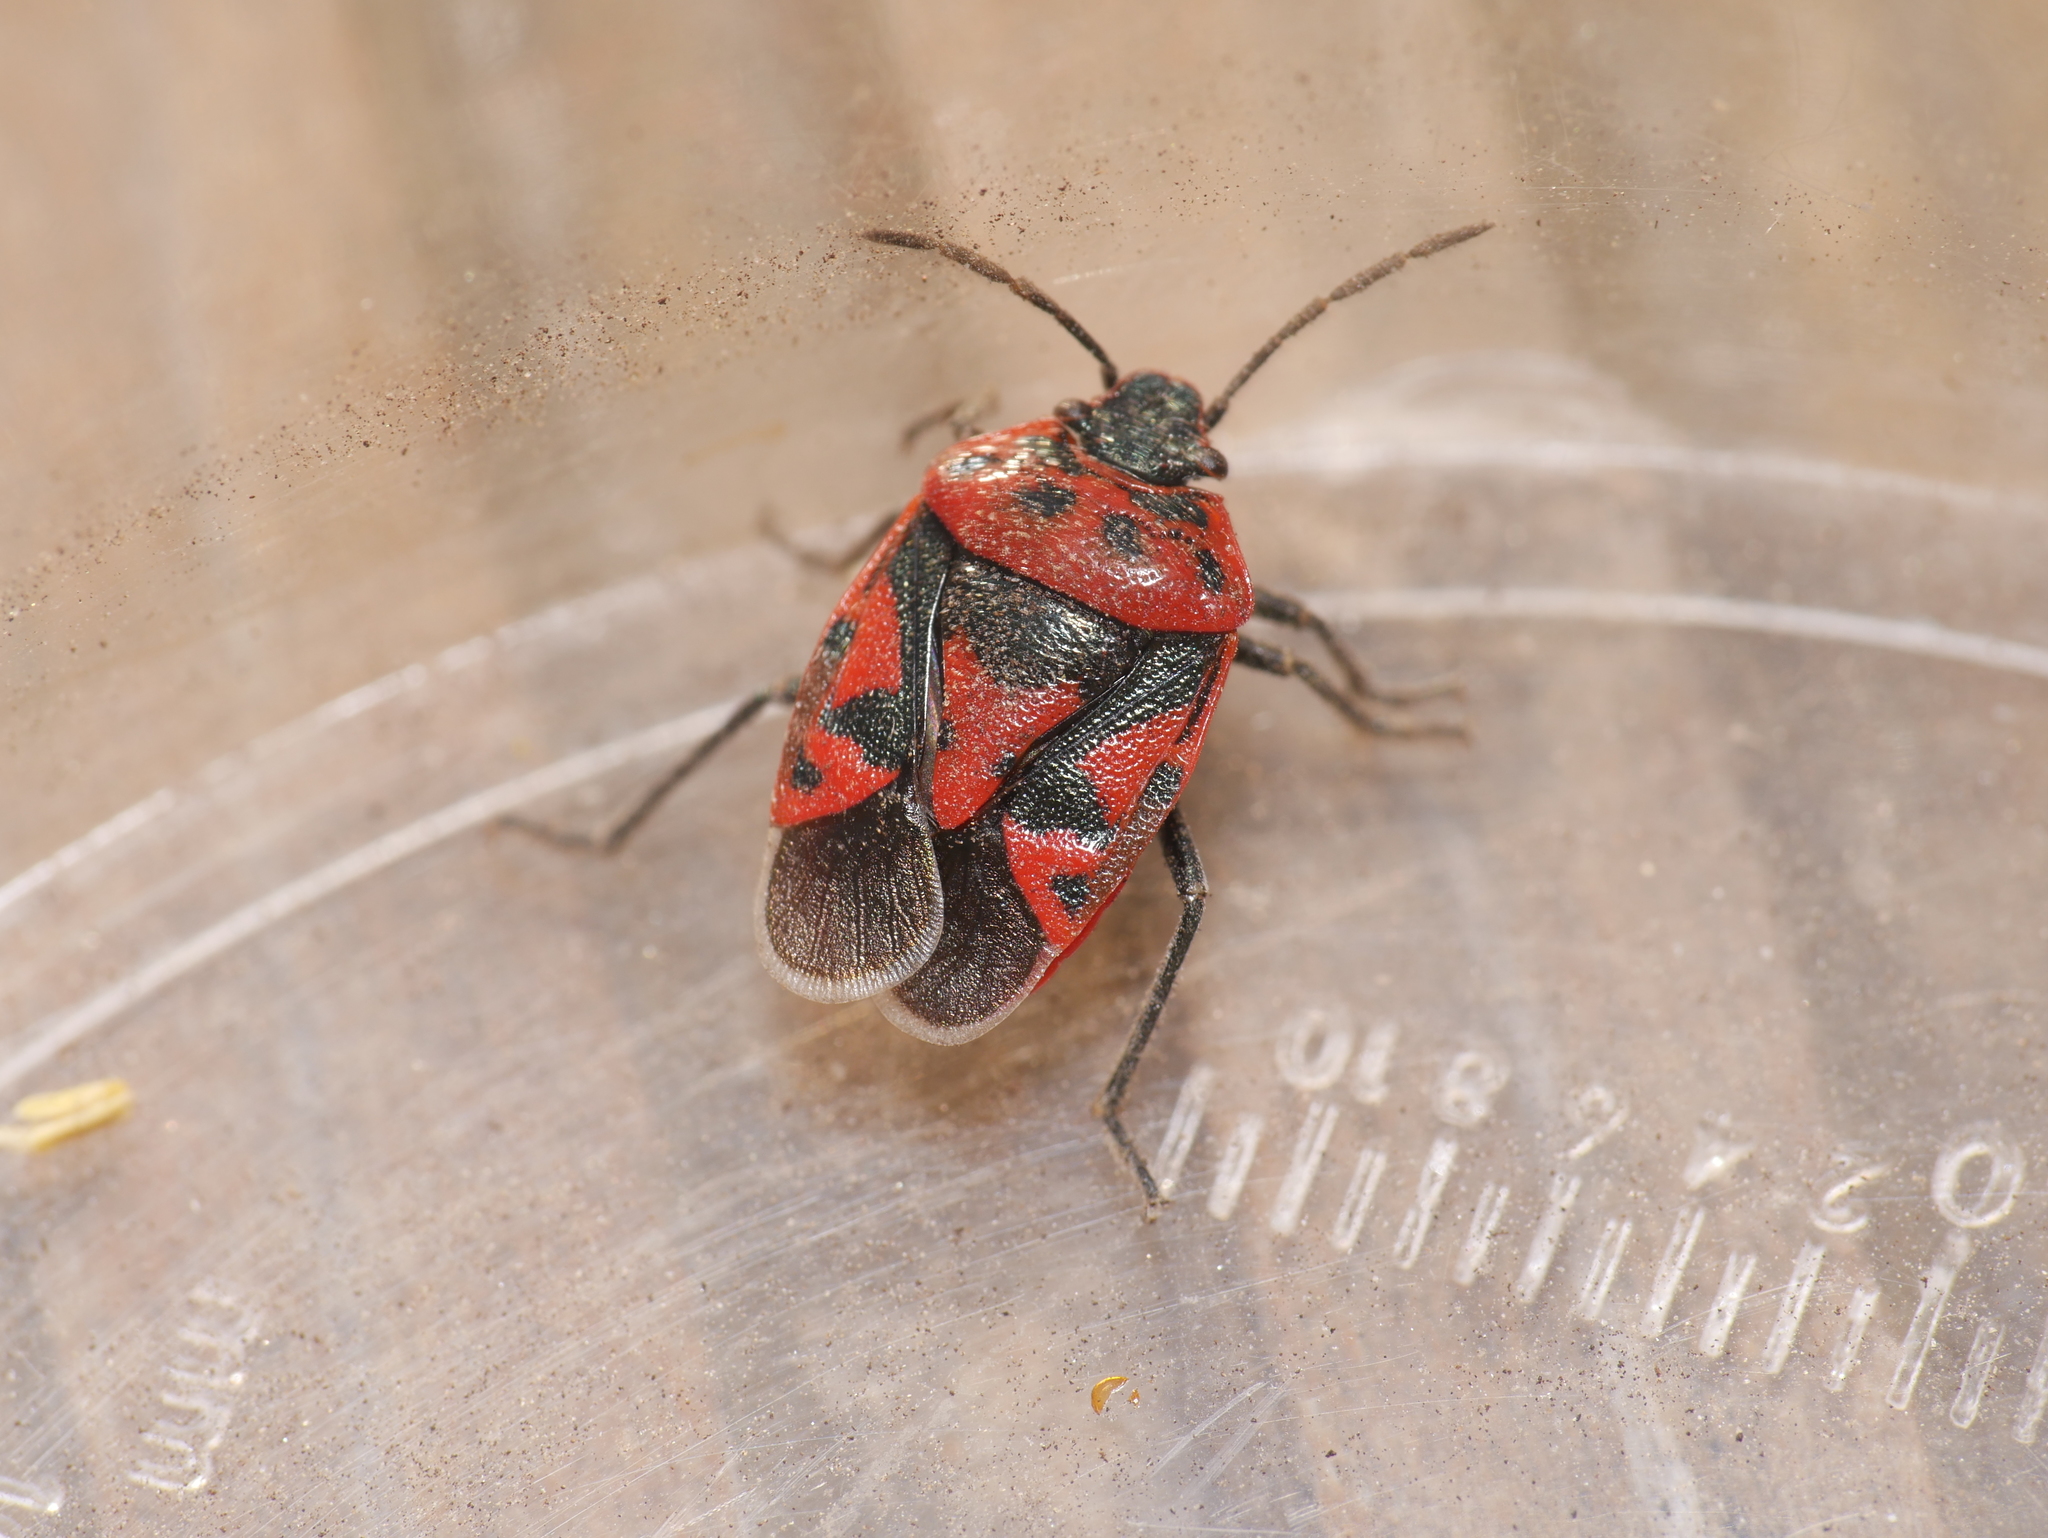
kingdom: Animalia
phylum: Arthropoda
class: Insecta
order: Hemiptera
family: Pentatomidae
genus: Eurydema
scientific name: Eurydema ornata
